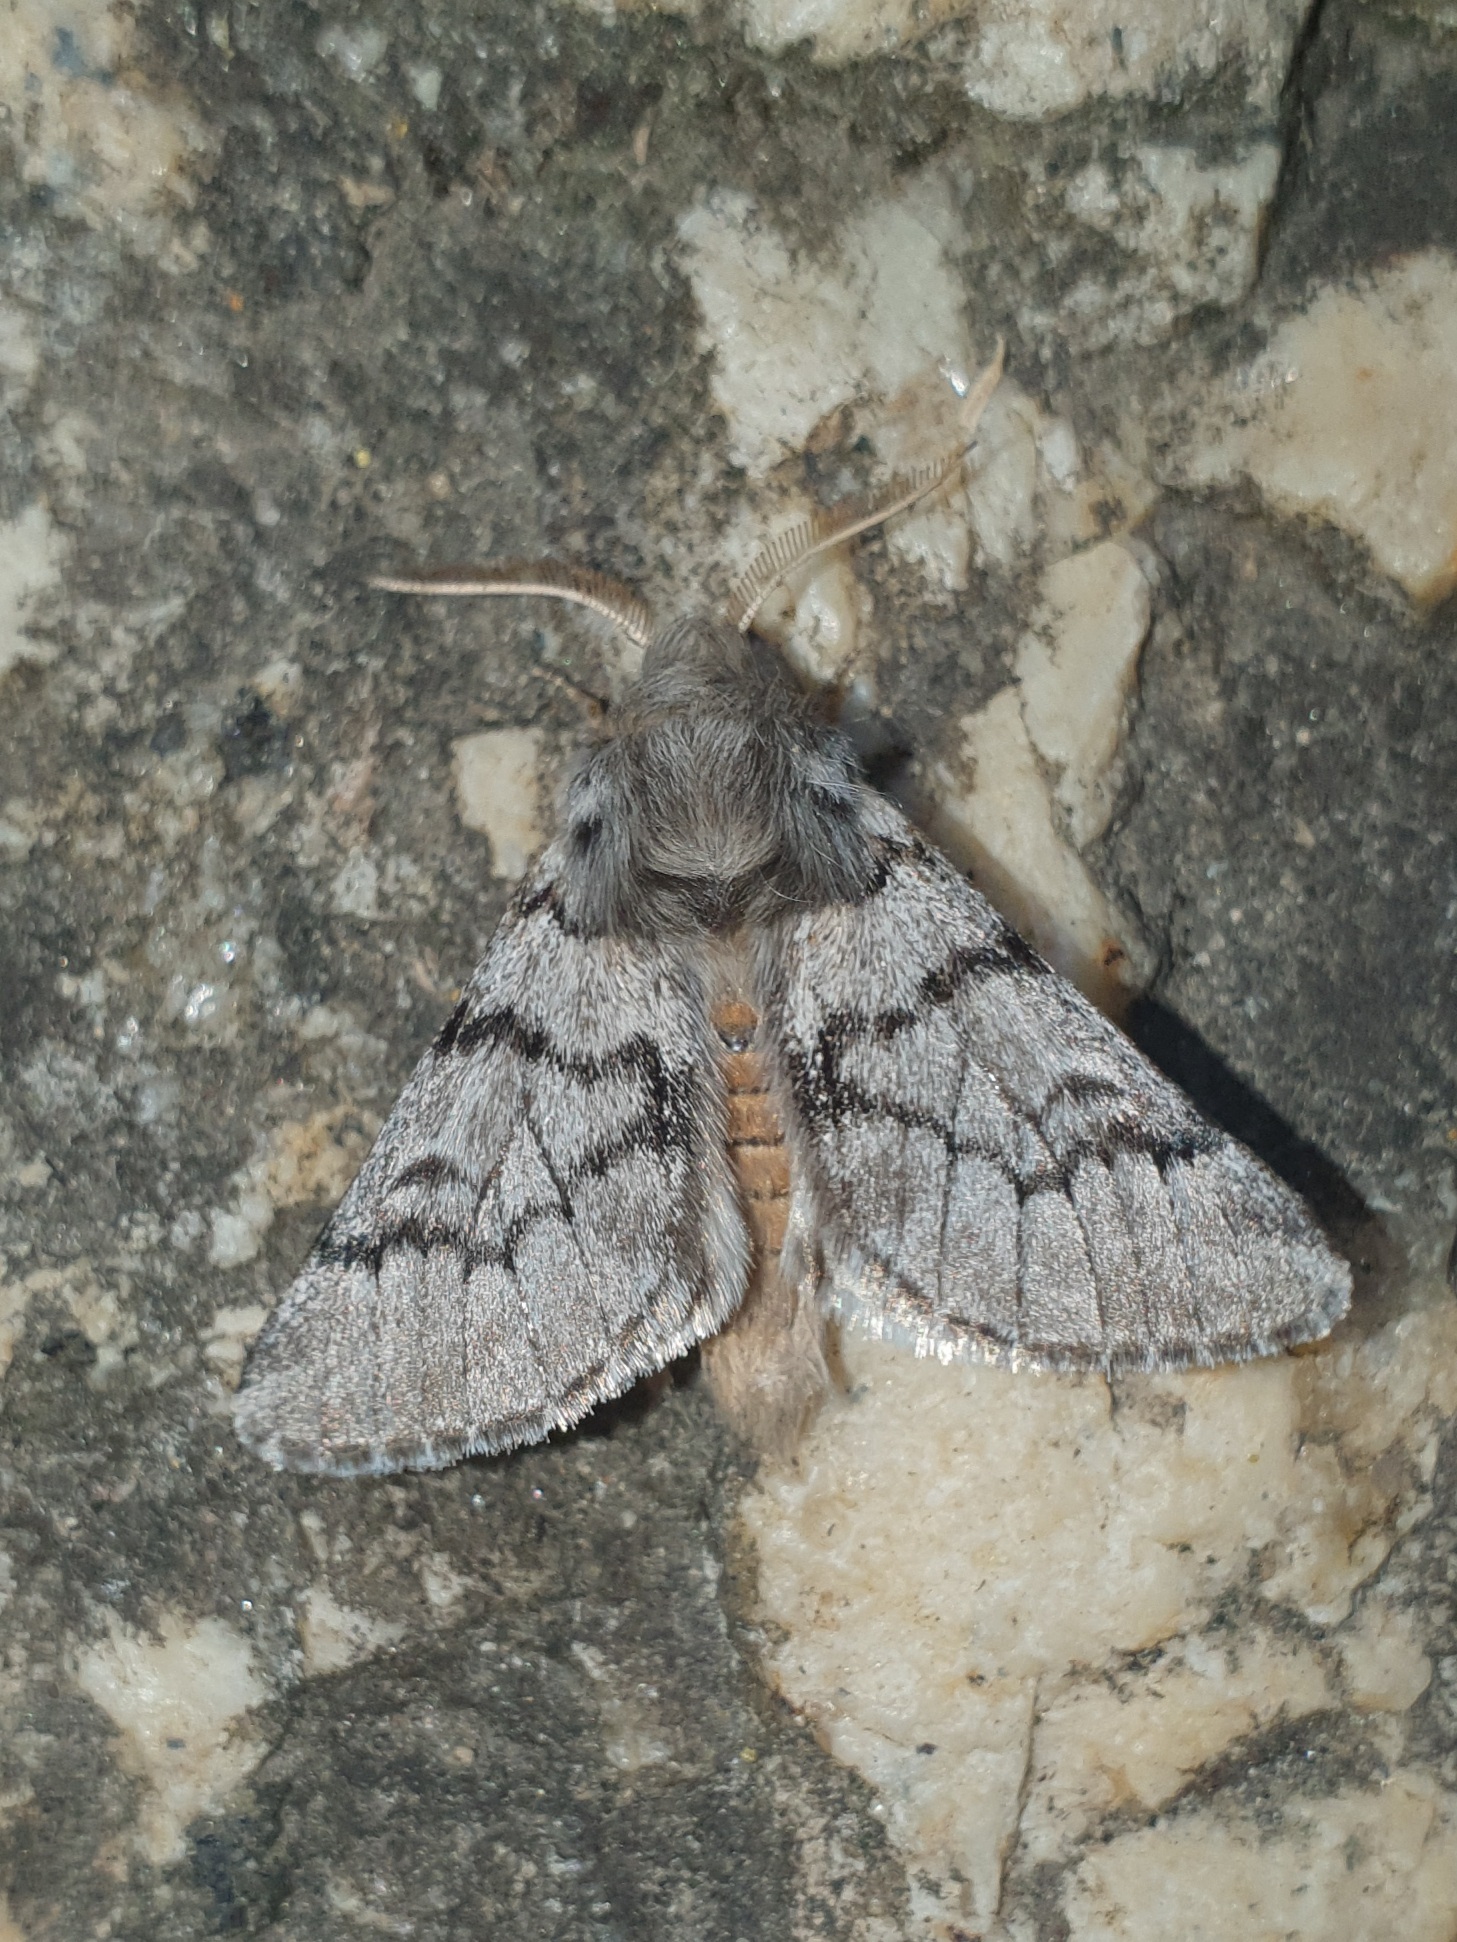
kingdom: Animalia
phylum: Arthropoda
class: Insecta
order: Lepidoptera
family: Notodontidae
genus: Thaumetopoea
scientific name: Thaumetopoea pityocampa
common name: Pine processionary
